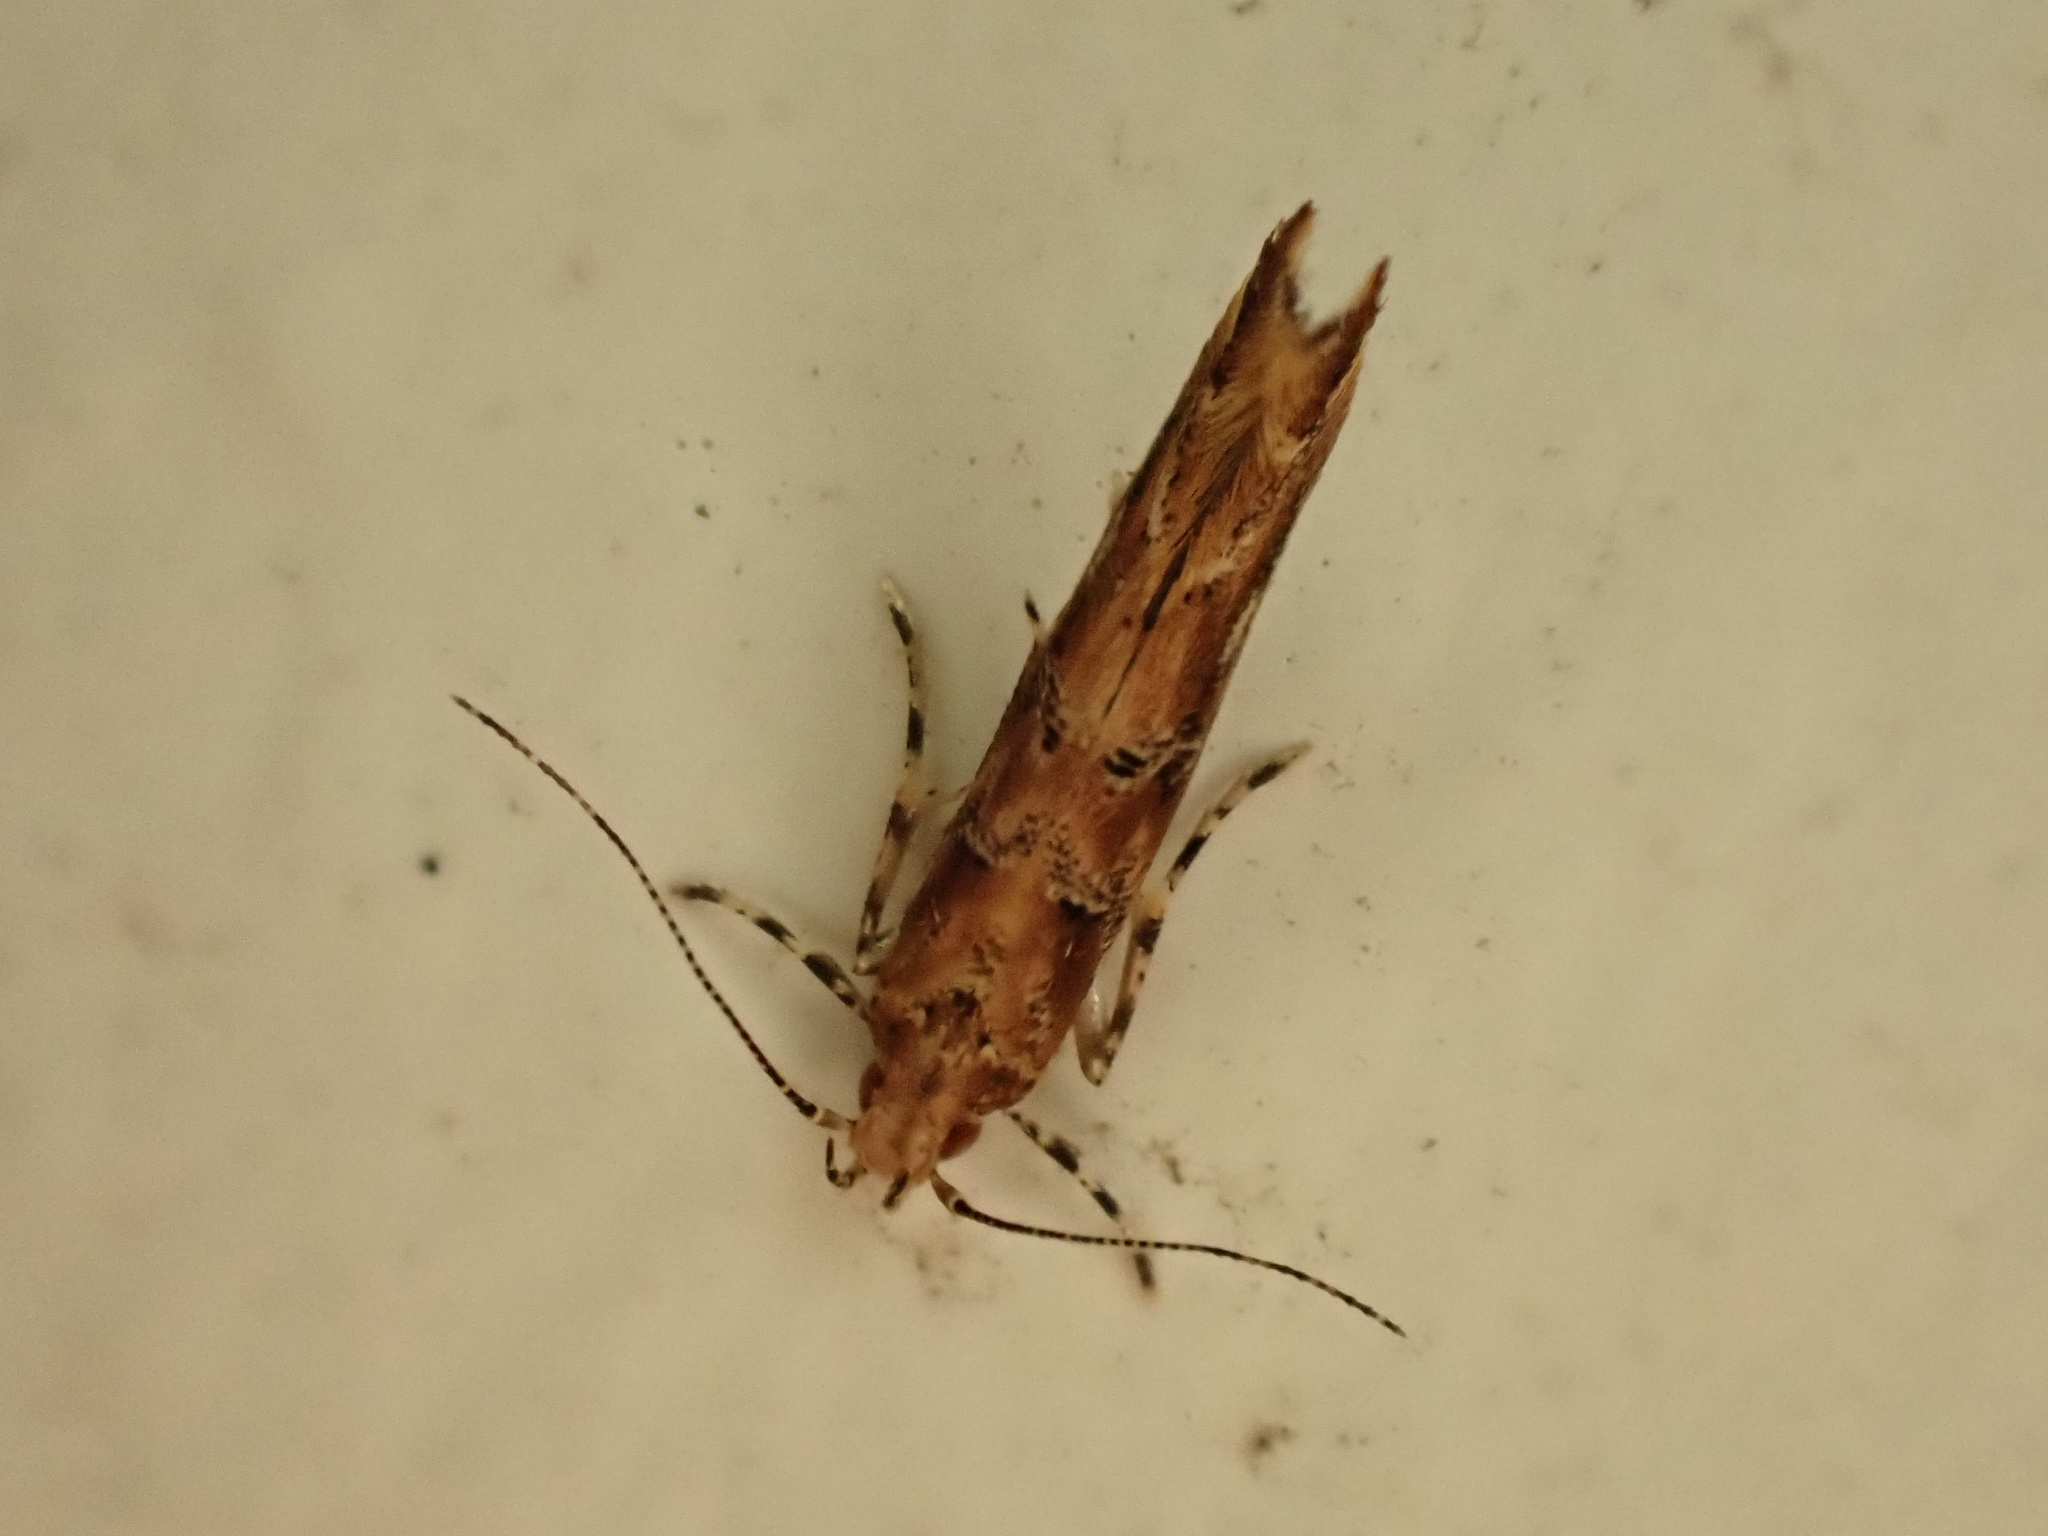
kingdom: Animalia
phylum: Arthropoda
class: Insecta
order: Lepidoptera
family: Cosmopterigidae
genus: Pyroderces
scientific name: Pyroderces aellotricha
